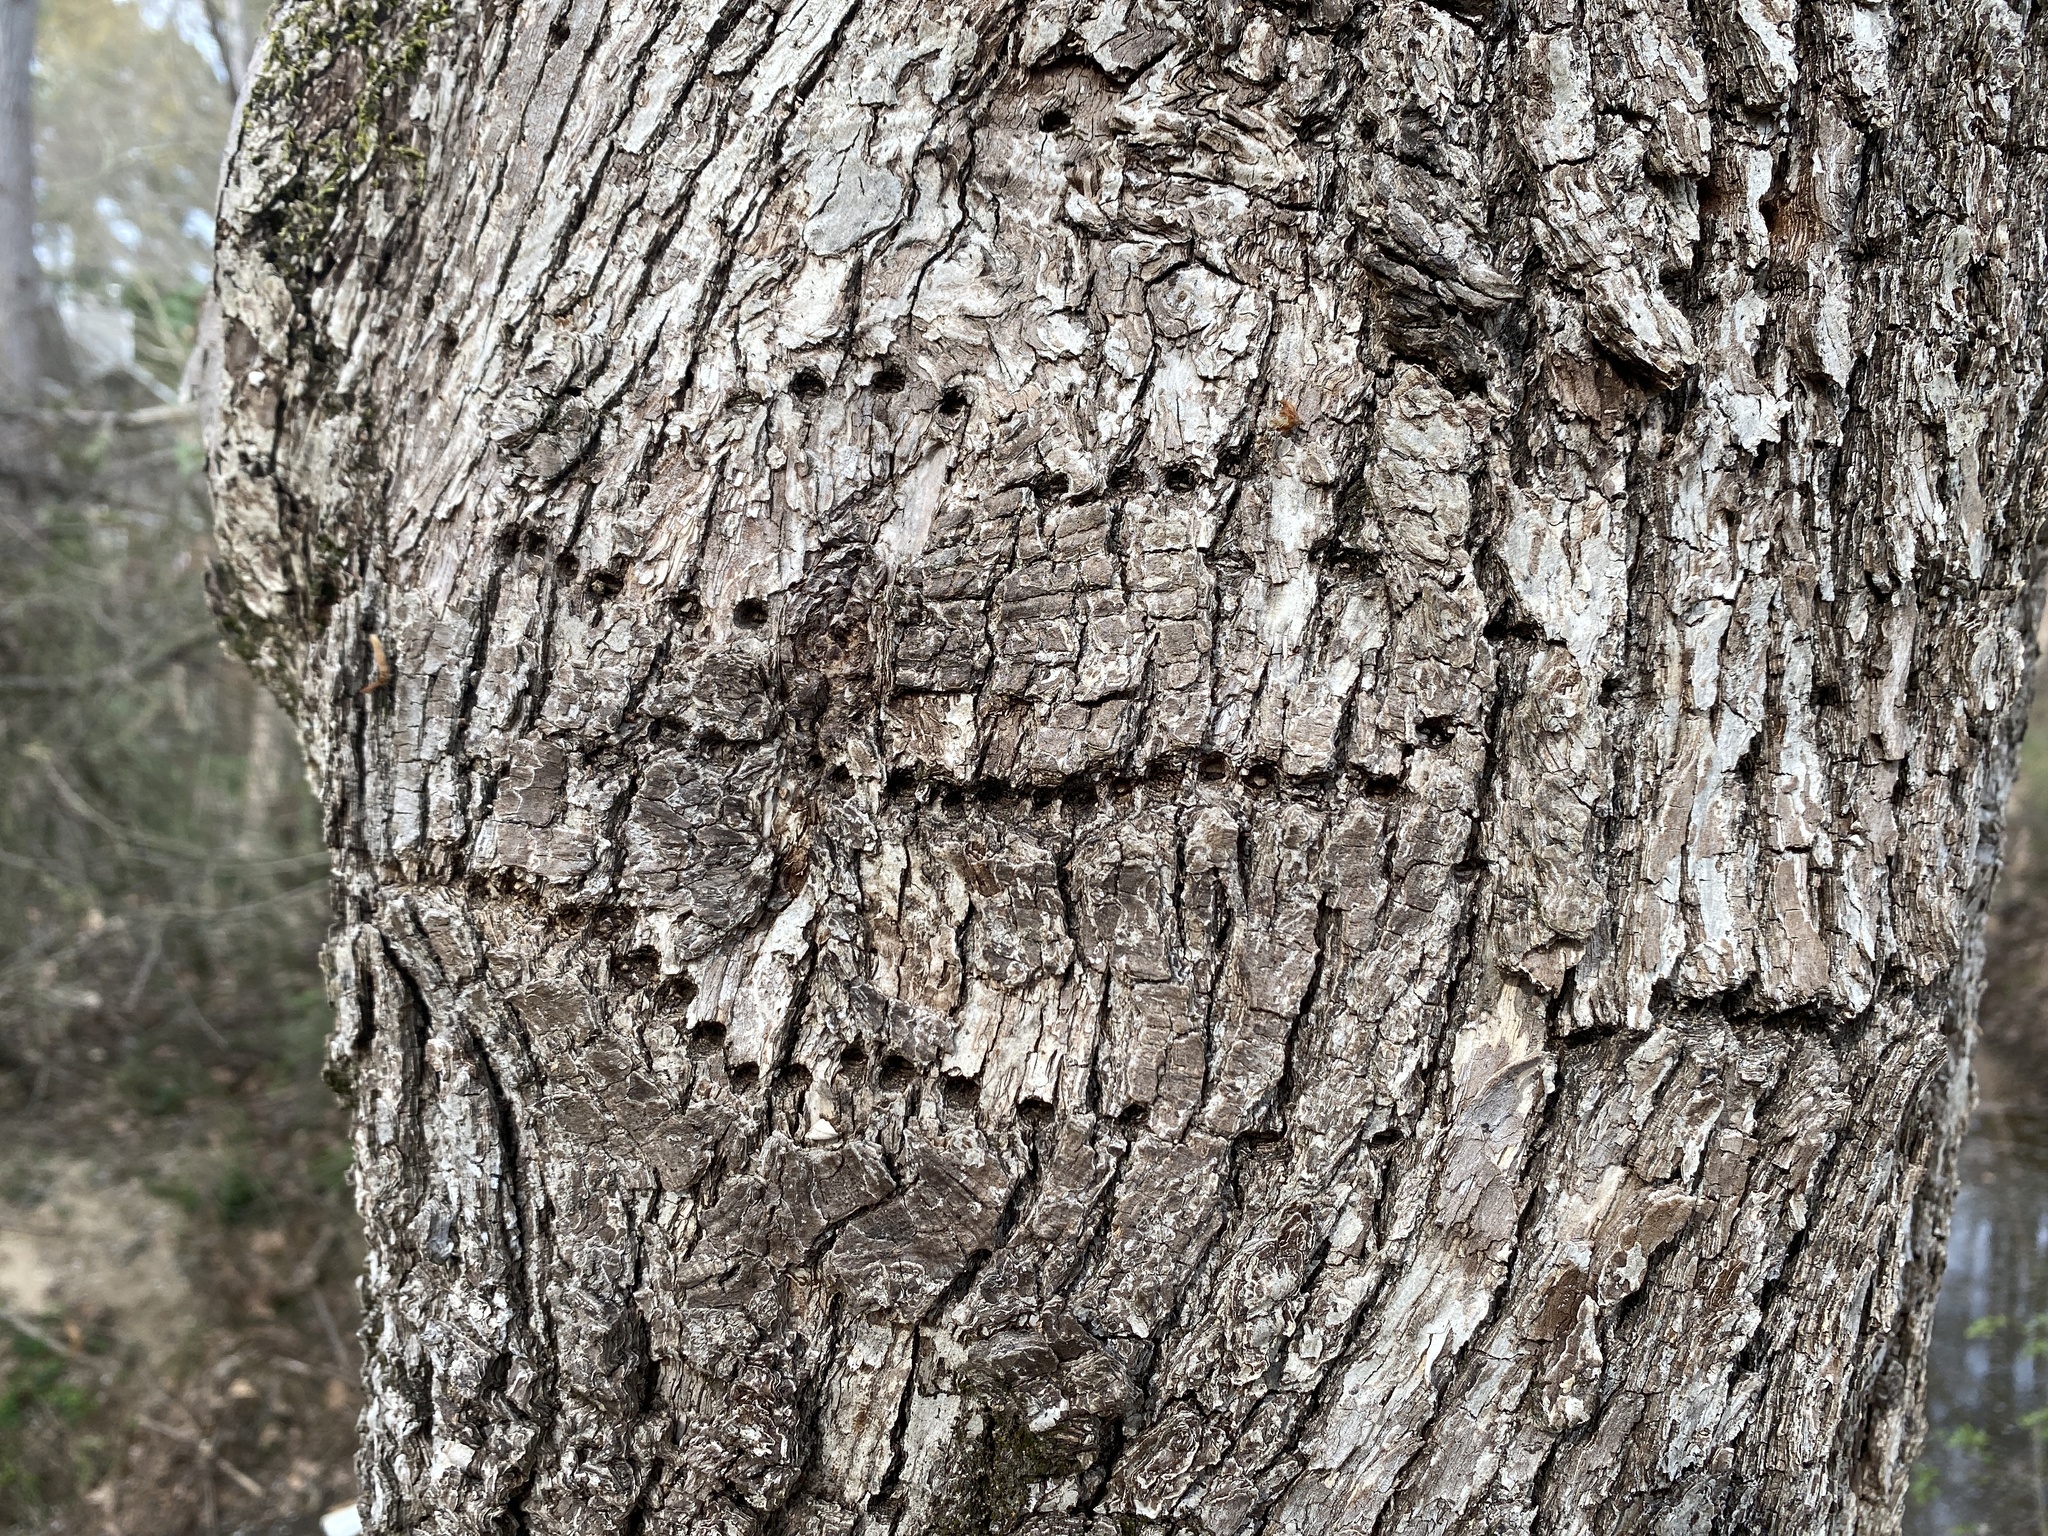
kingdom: Animalia
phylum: Chordata
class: Aves
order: Piciformes
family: Picidae
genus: Sphyrapicus
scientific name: Sphyrapicus varius
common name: Yellow-bellied sapsucker
